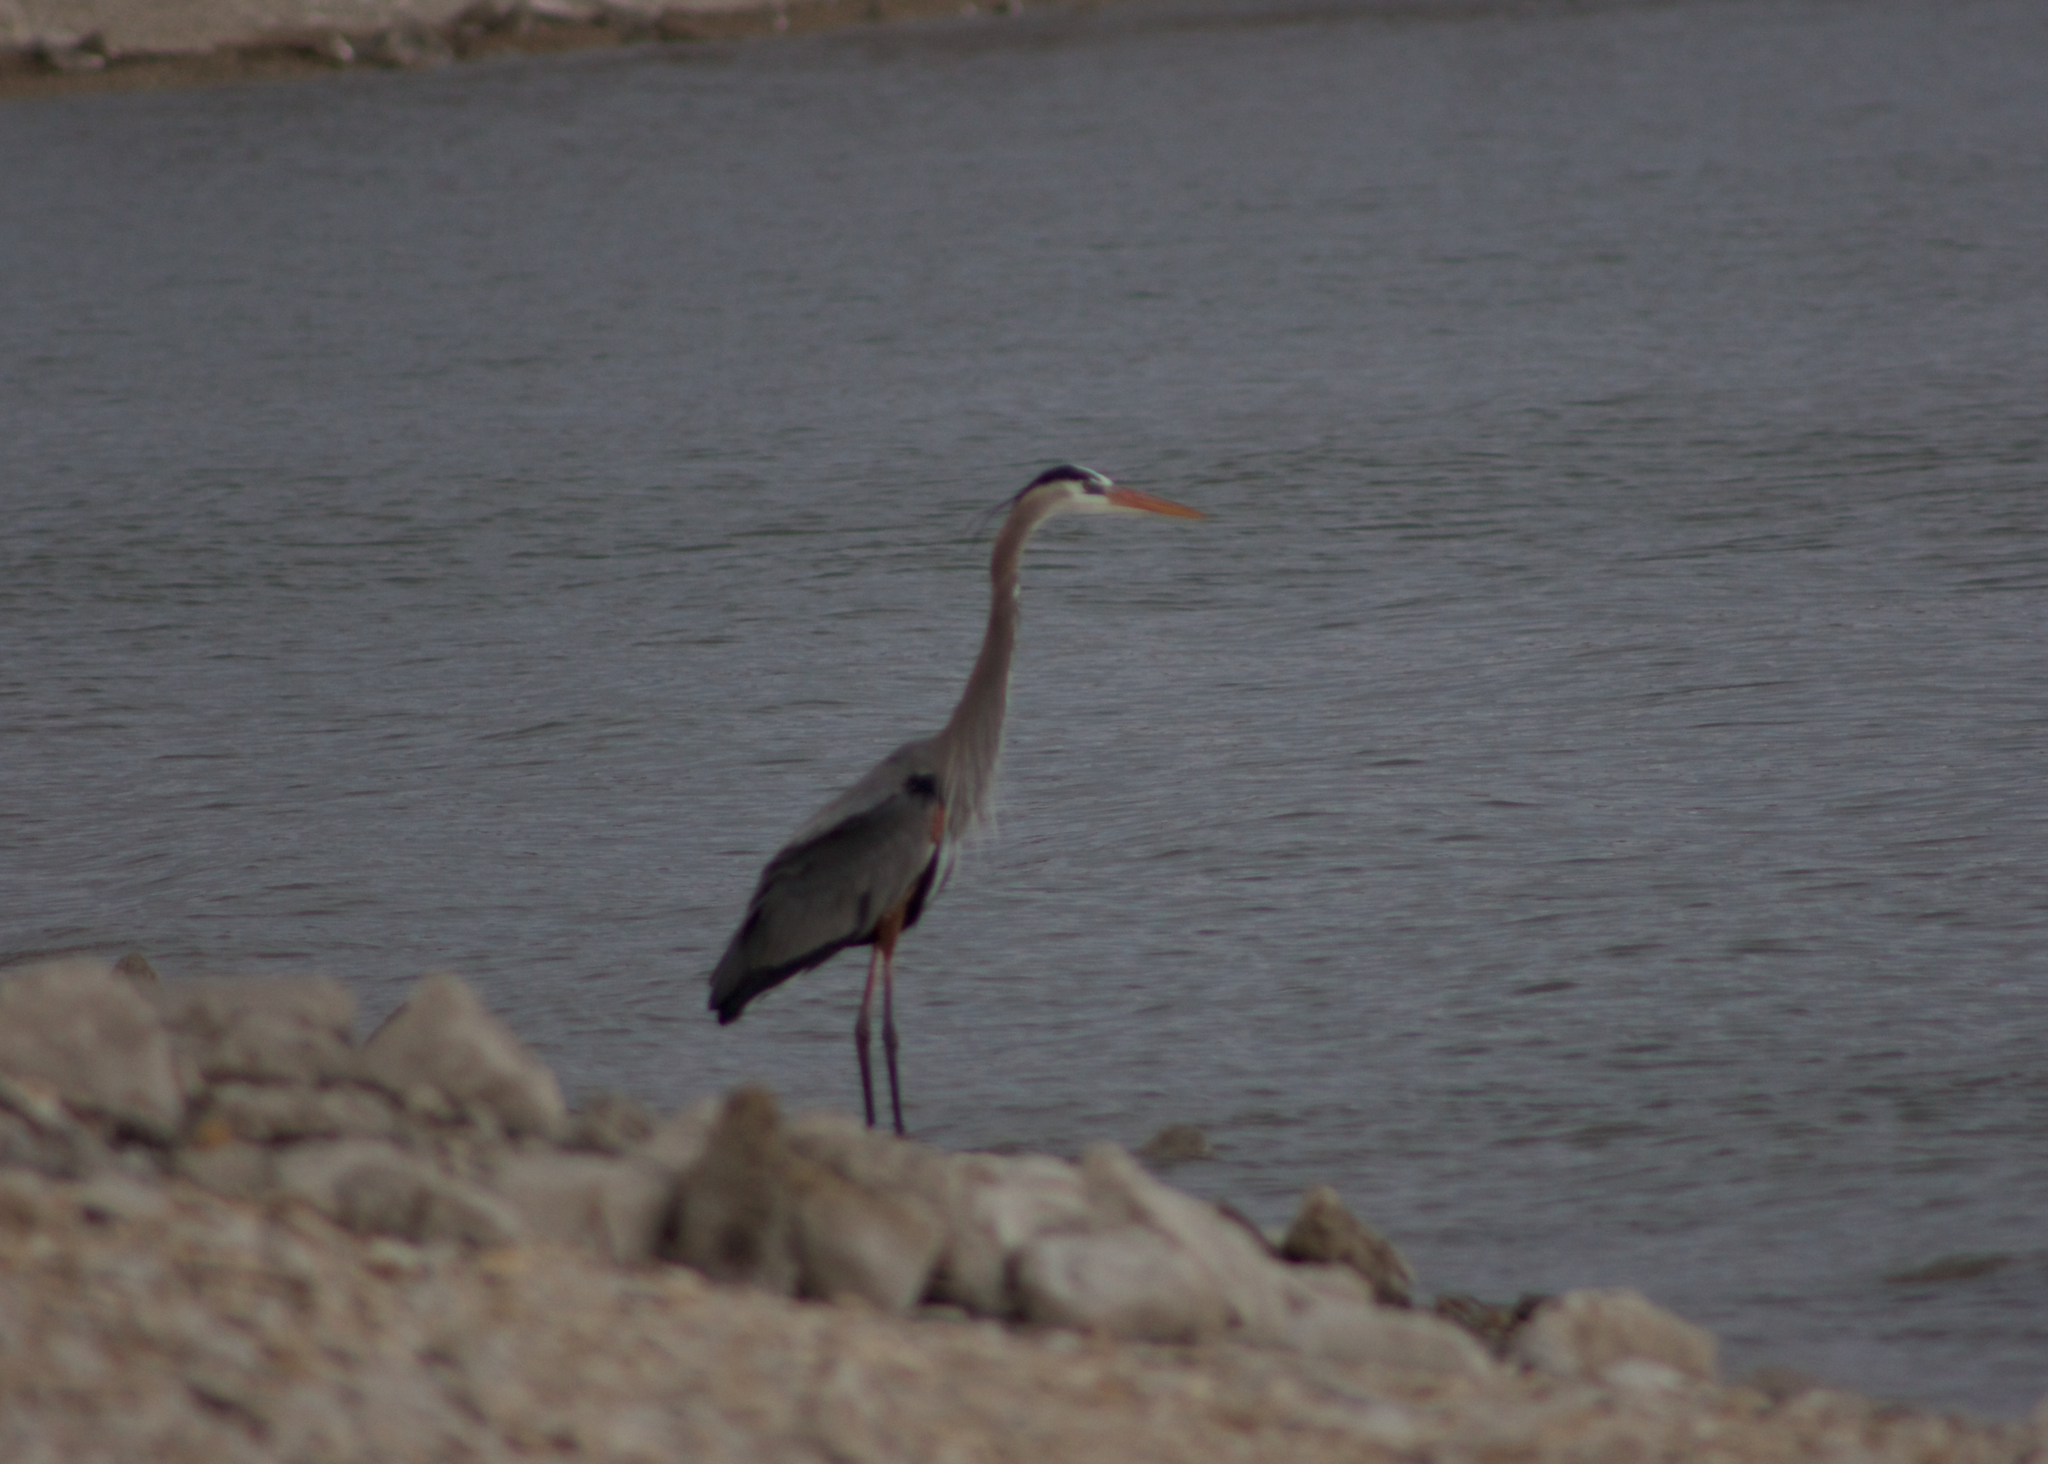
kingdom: Animalia
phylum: Chordata
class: Aves
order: Pelecaniformes
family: Ardeidae
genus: Ardea
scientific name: Ardea herodias
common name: Great blue heron
